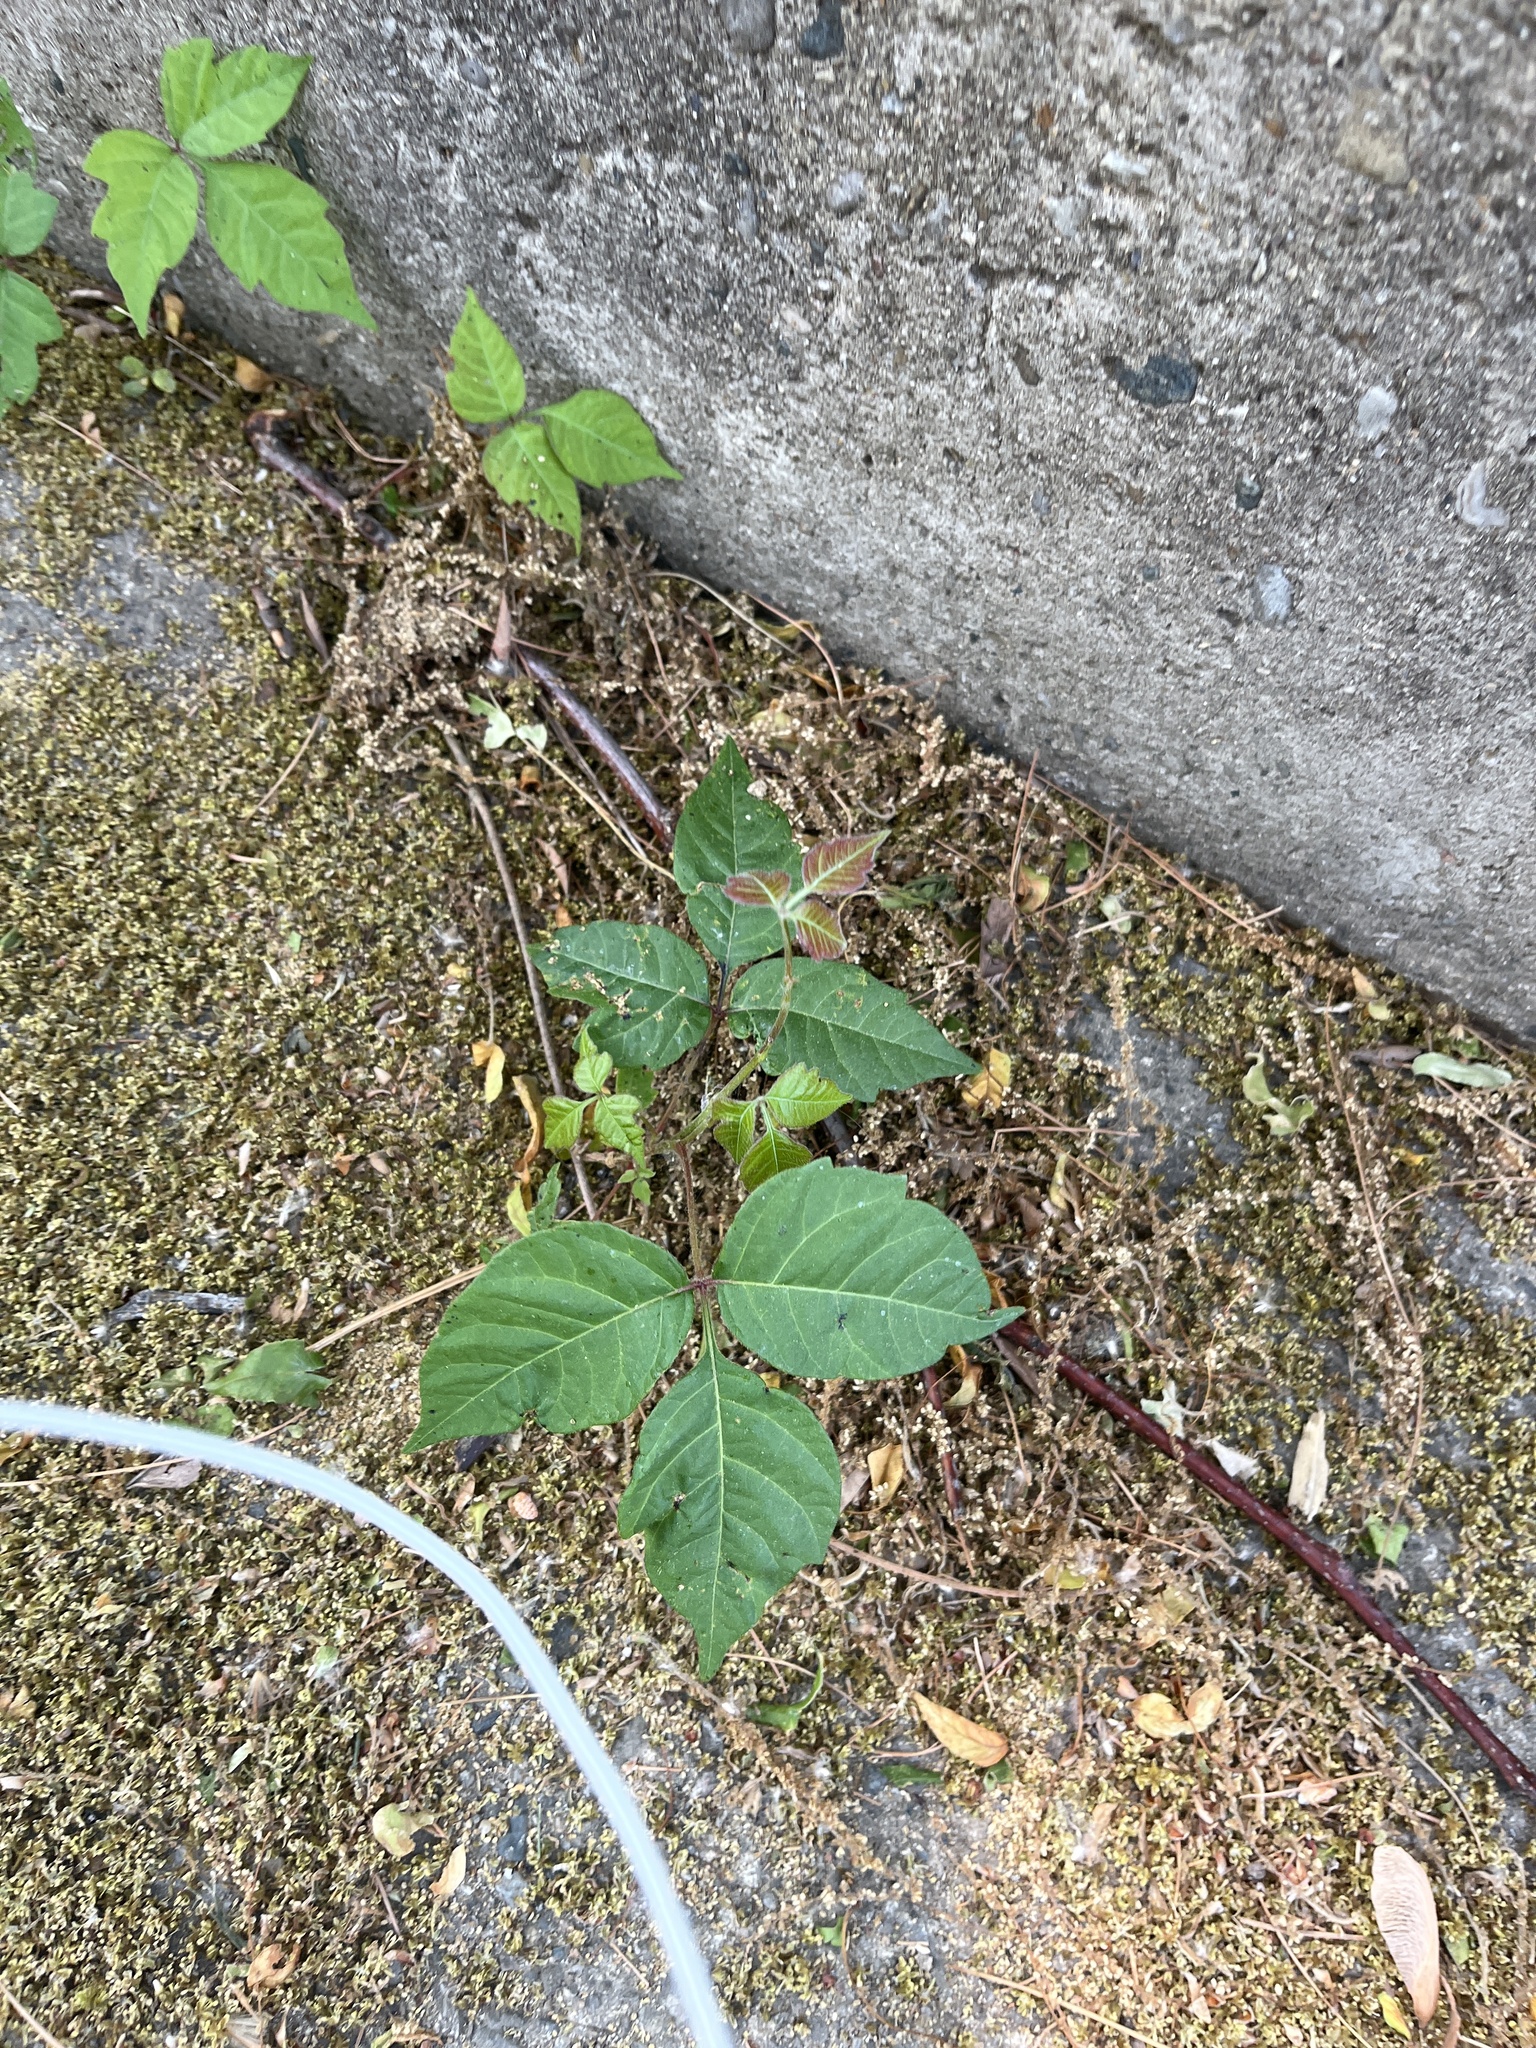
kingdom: Plantae
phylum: Tracheophyta
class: Magnoliopsida
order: Sapindales
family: Anacardiaceae
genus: Toxicodendron
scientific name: Toxicodendron radicans
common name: Poison ivy
